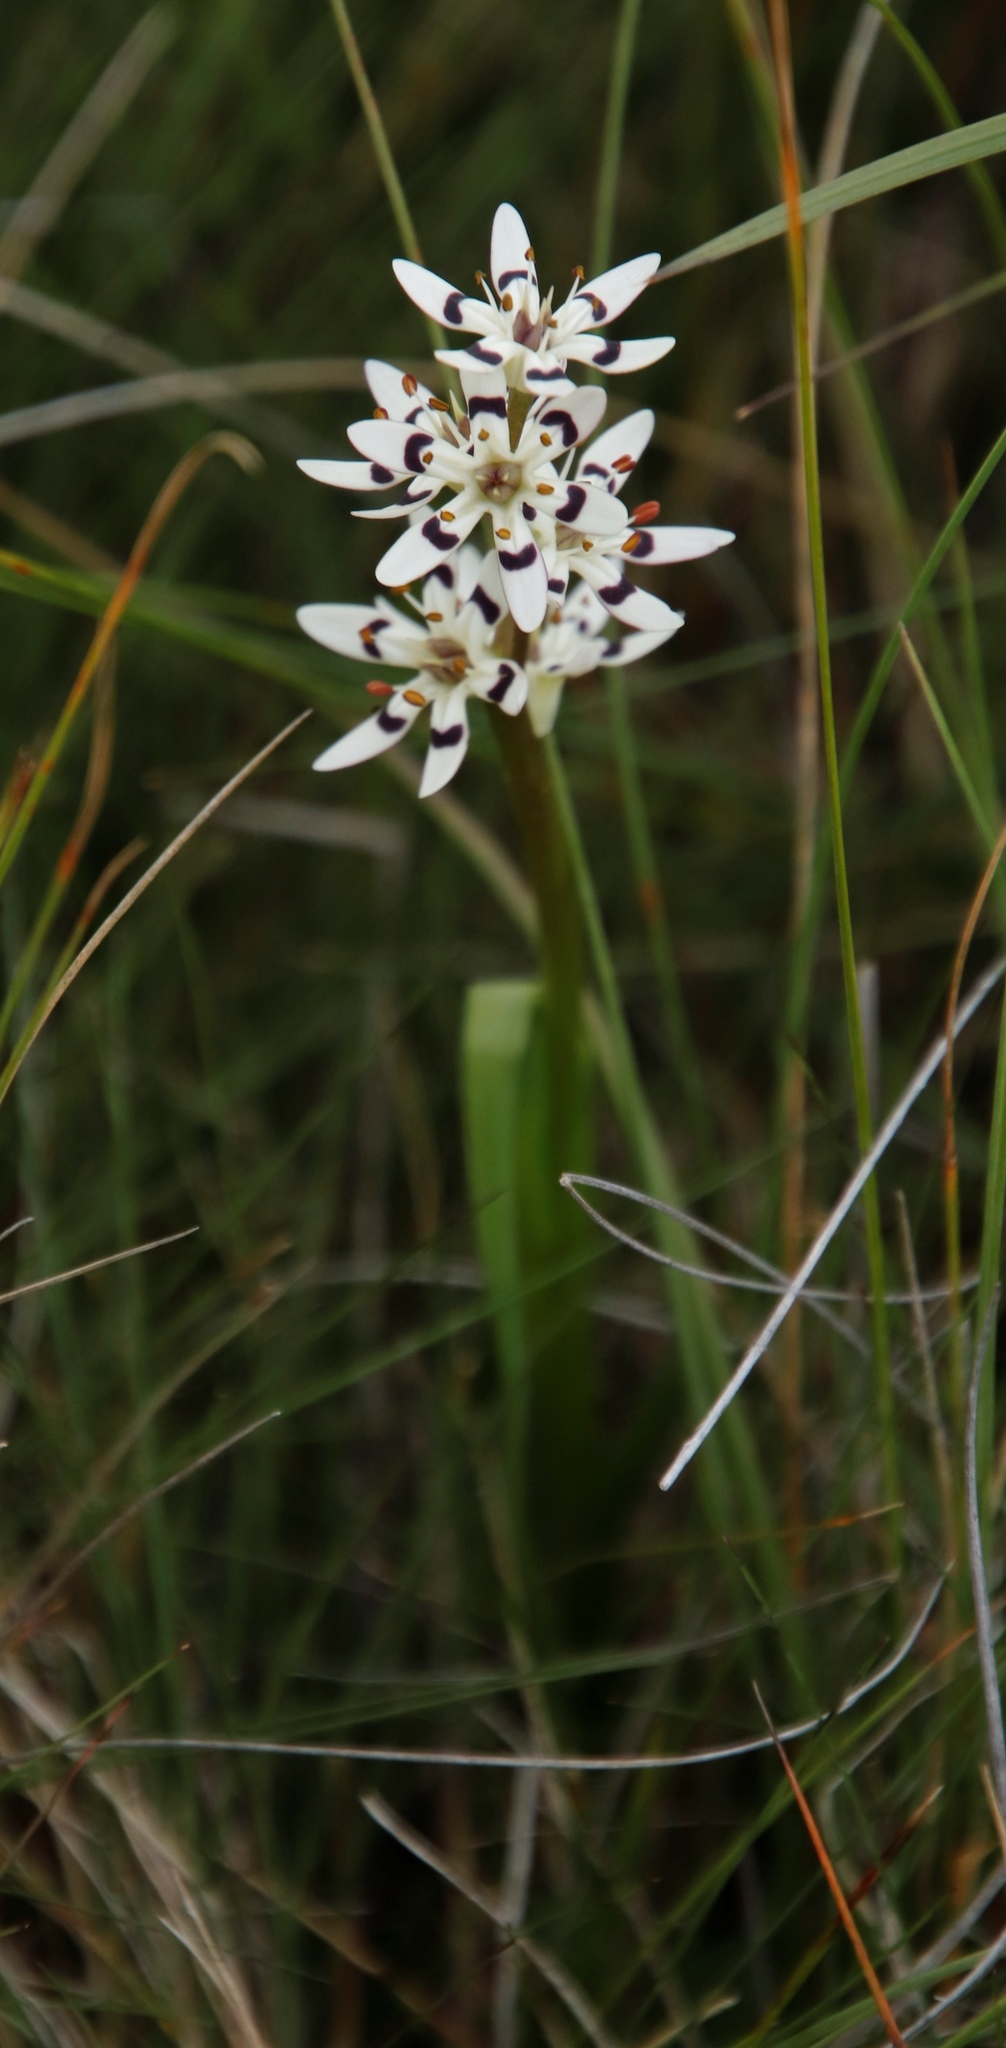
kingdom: Plantae
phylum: Tracheophyta
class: Liliopsida
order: Liliales
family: Colchicaceae
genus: Wurmbea
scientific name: Wurmbea elatior
